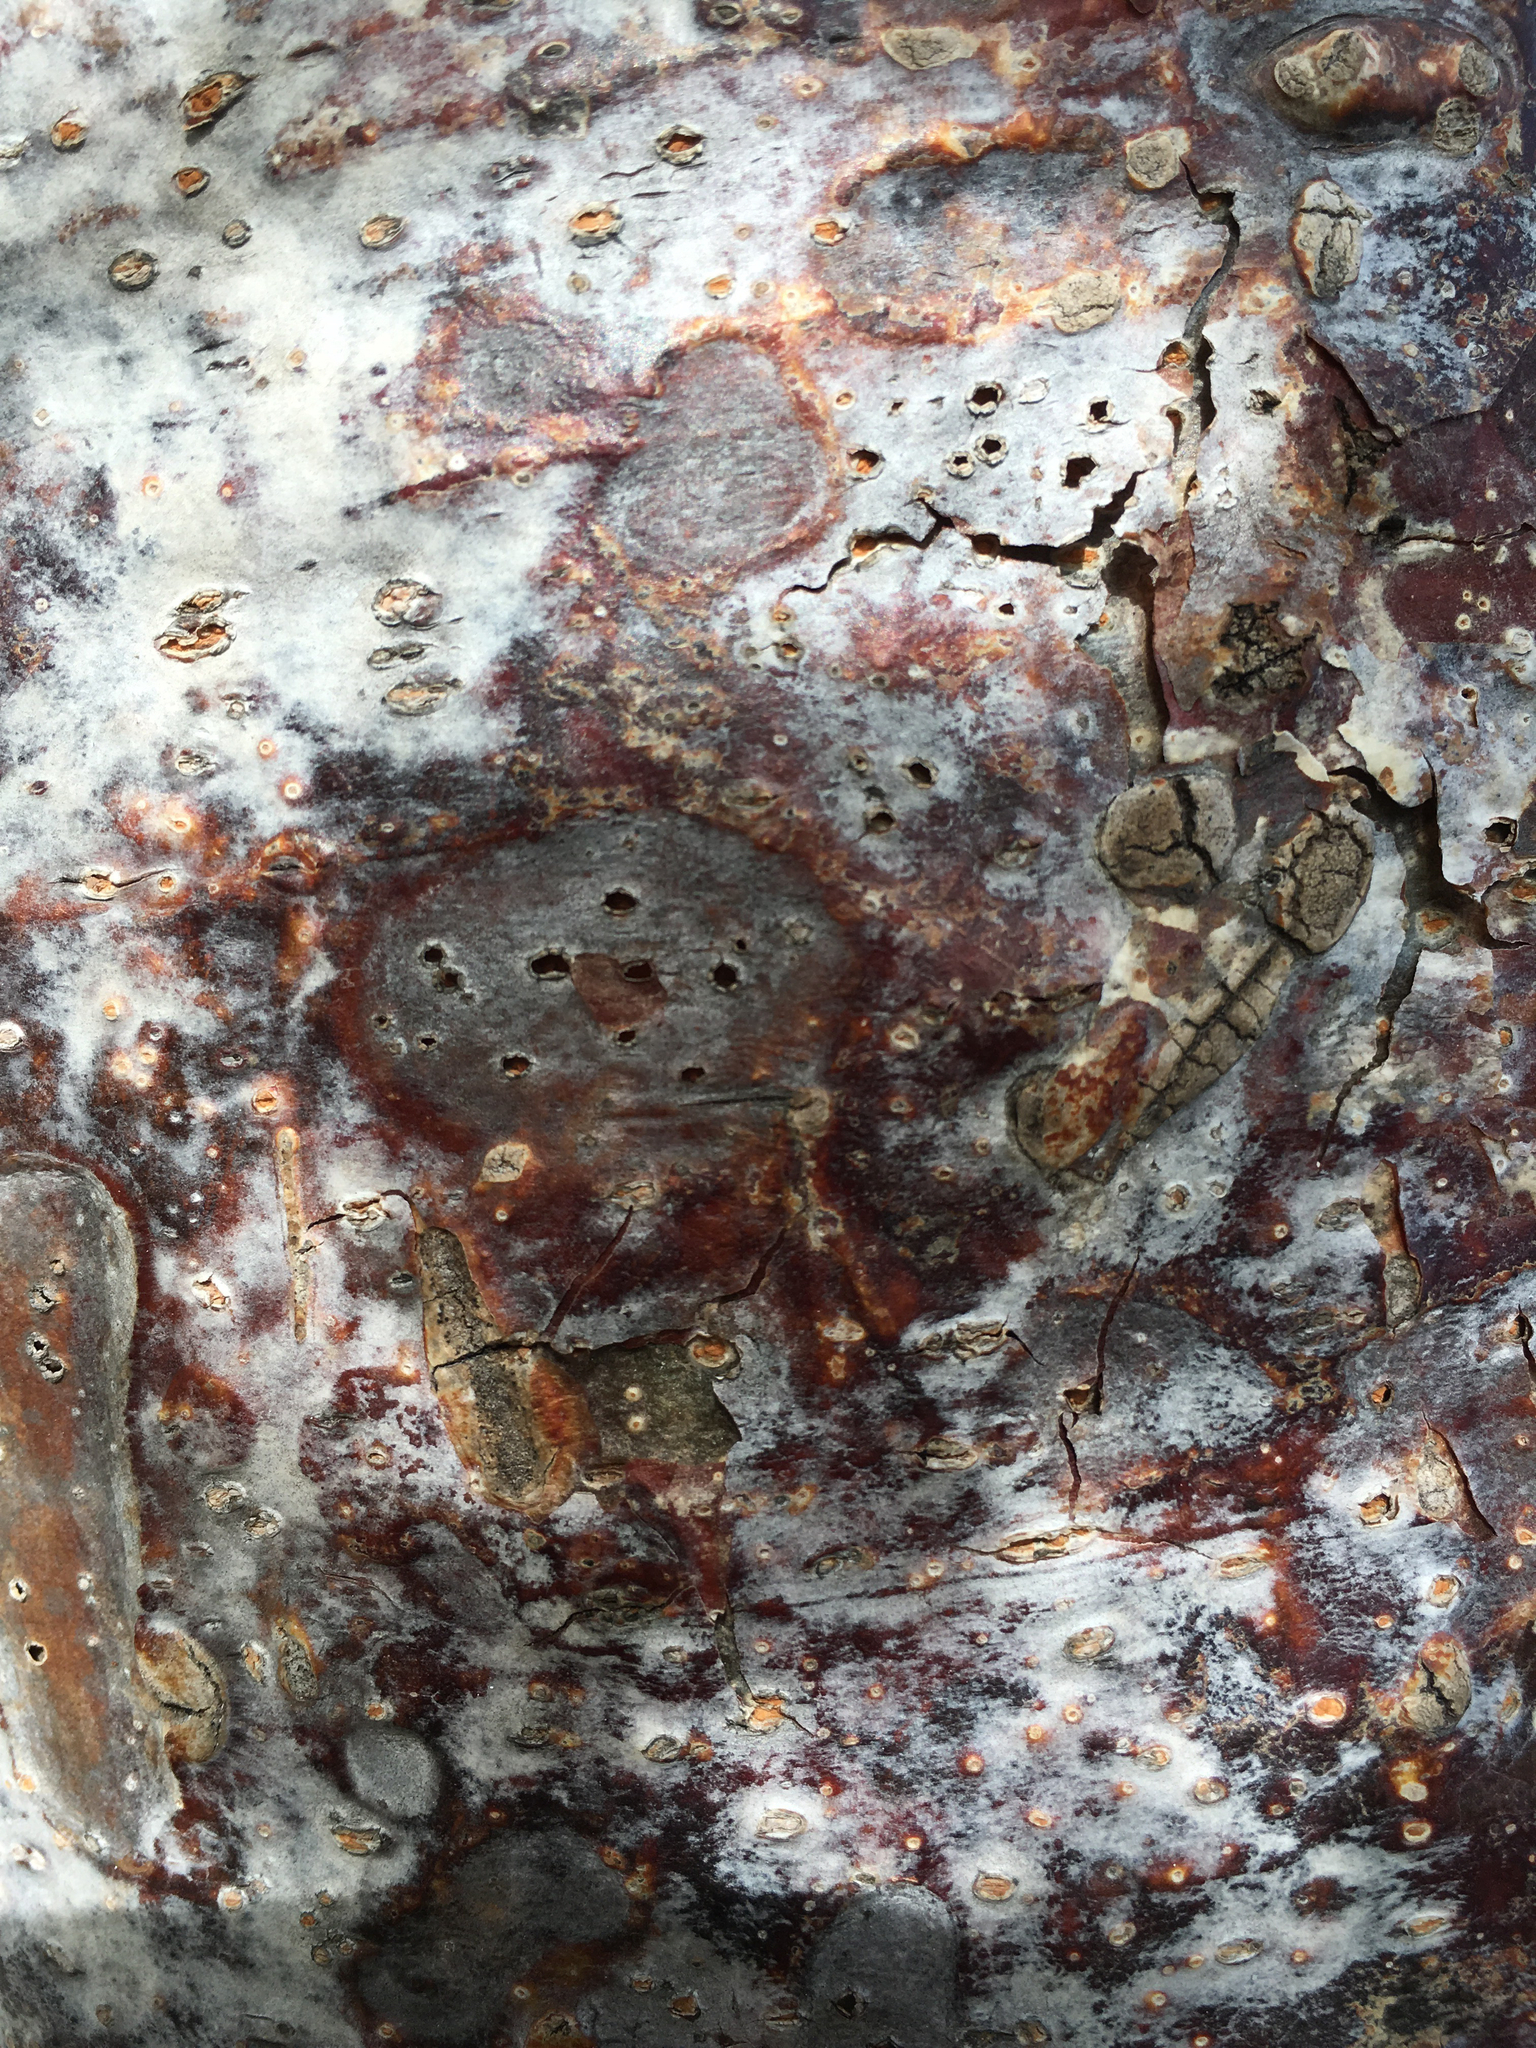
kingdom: Plantae
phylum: Tracheophyta
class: Magnoliopsida
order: Sapindales
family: Burseraceae
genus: Bursera
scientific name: Bursera simaruba
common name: Turpentine tree
